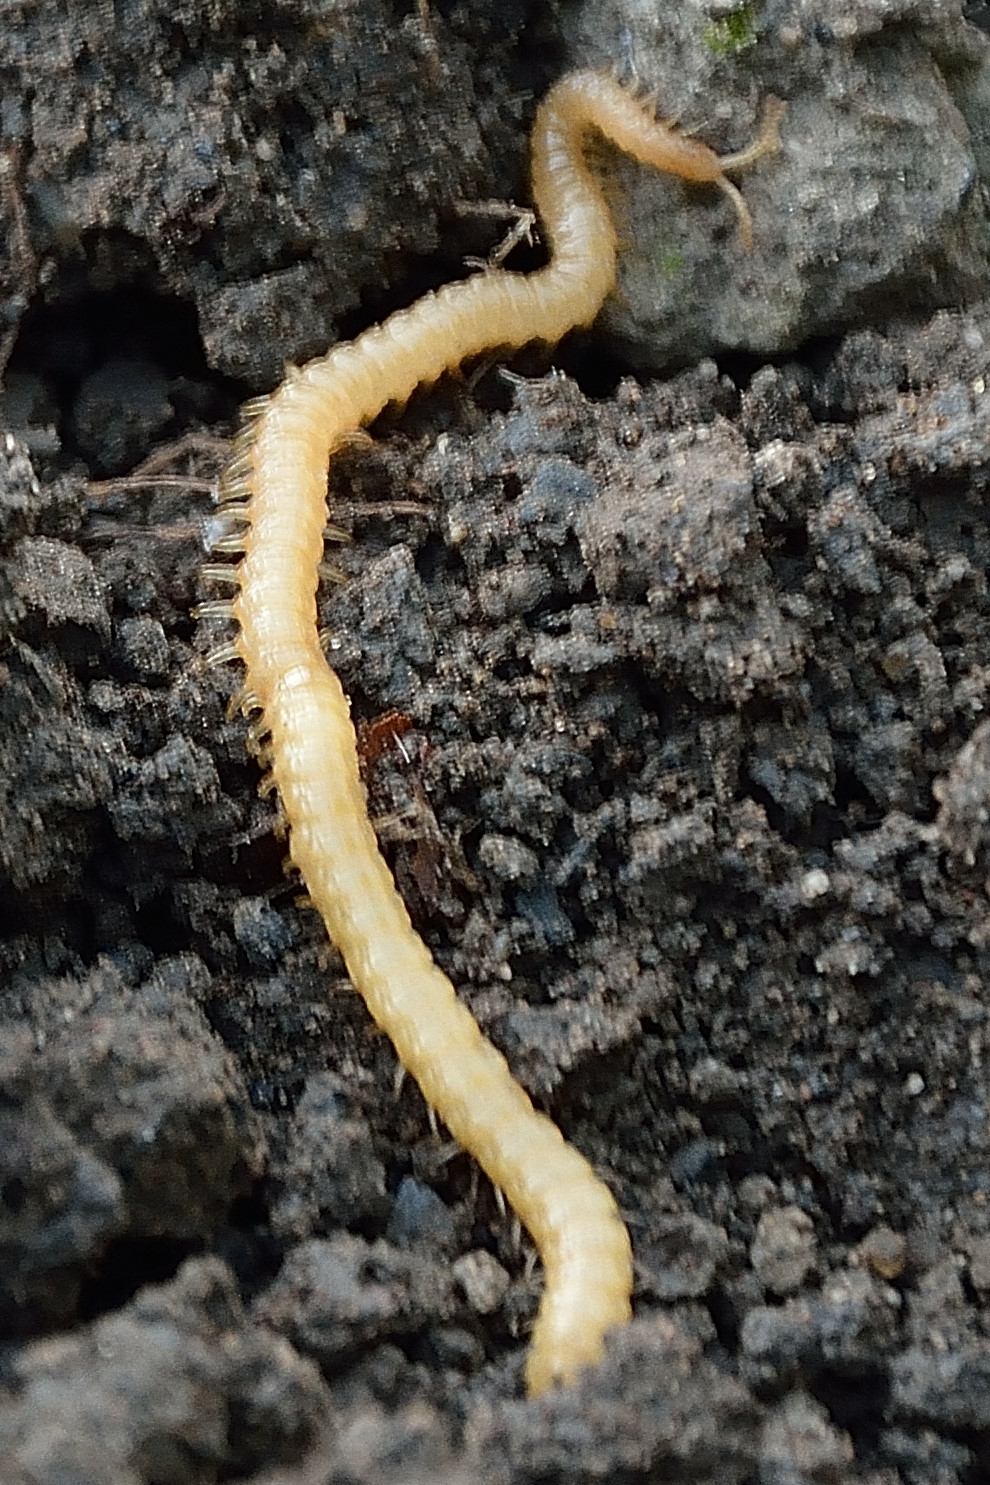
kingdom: Animalia
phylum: Arthropoda
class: Chilopoda
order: Geophilomorpha
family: Himantariidae
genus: Stigmatogaster
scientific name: Stigmatogaster subterranea
